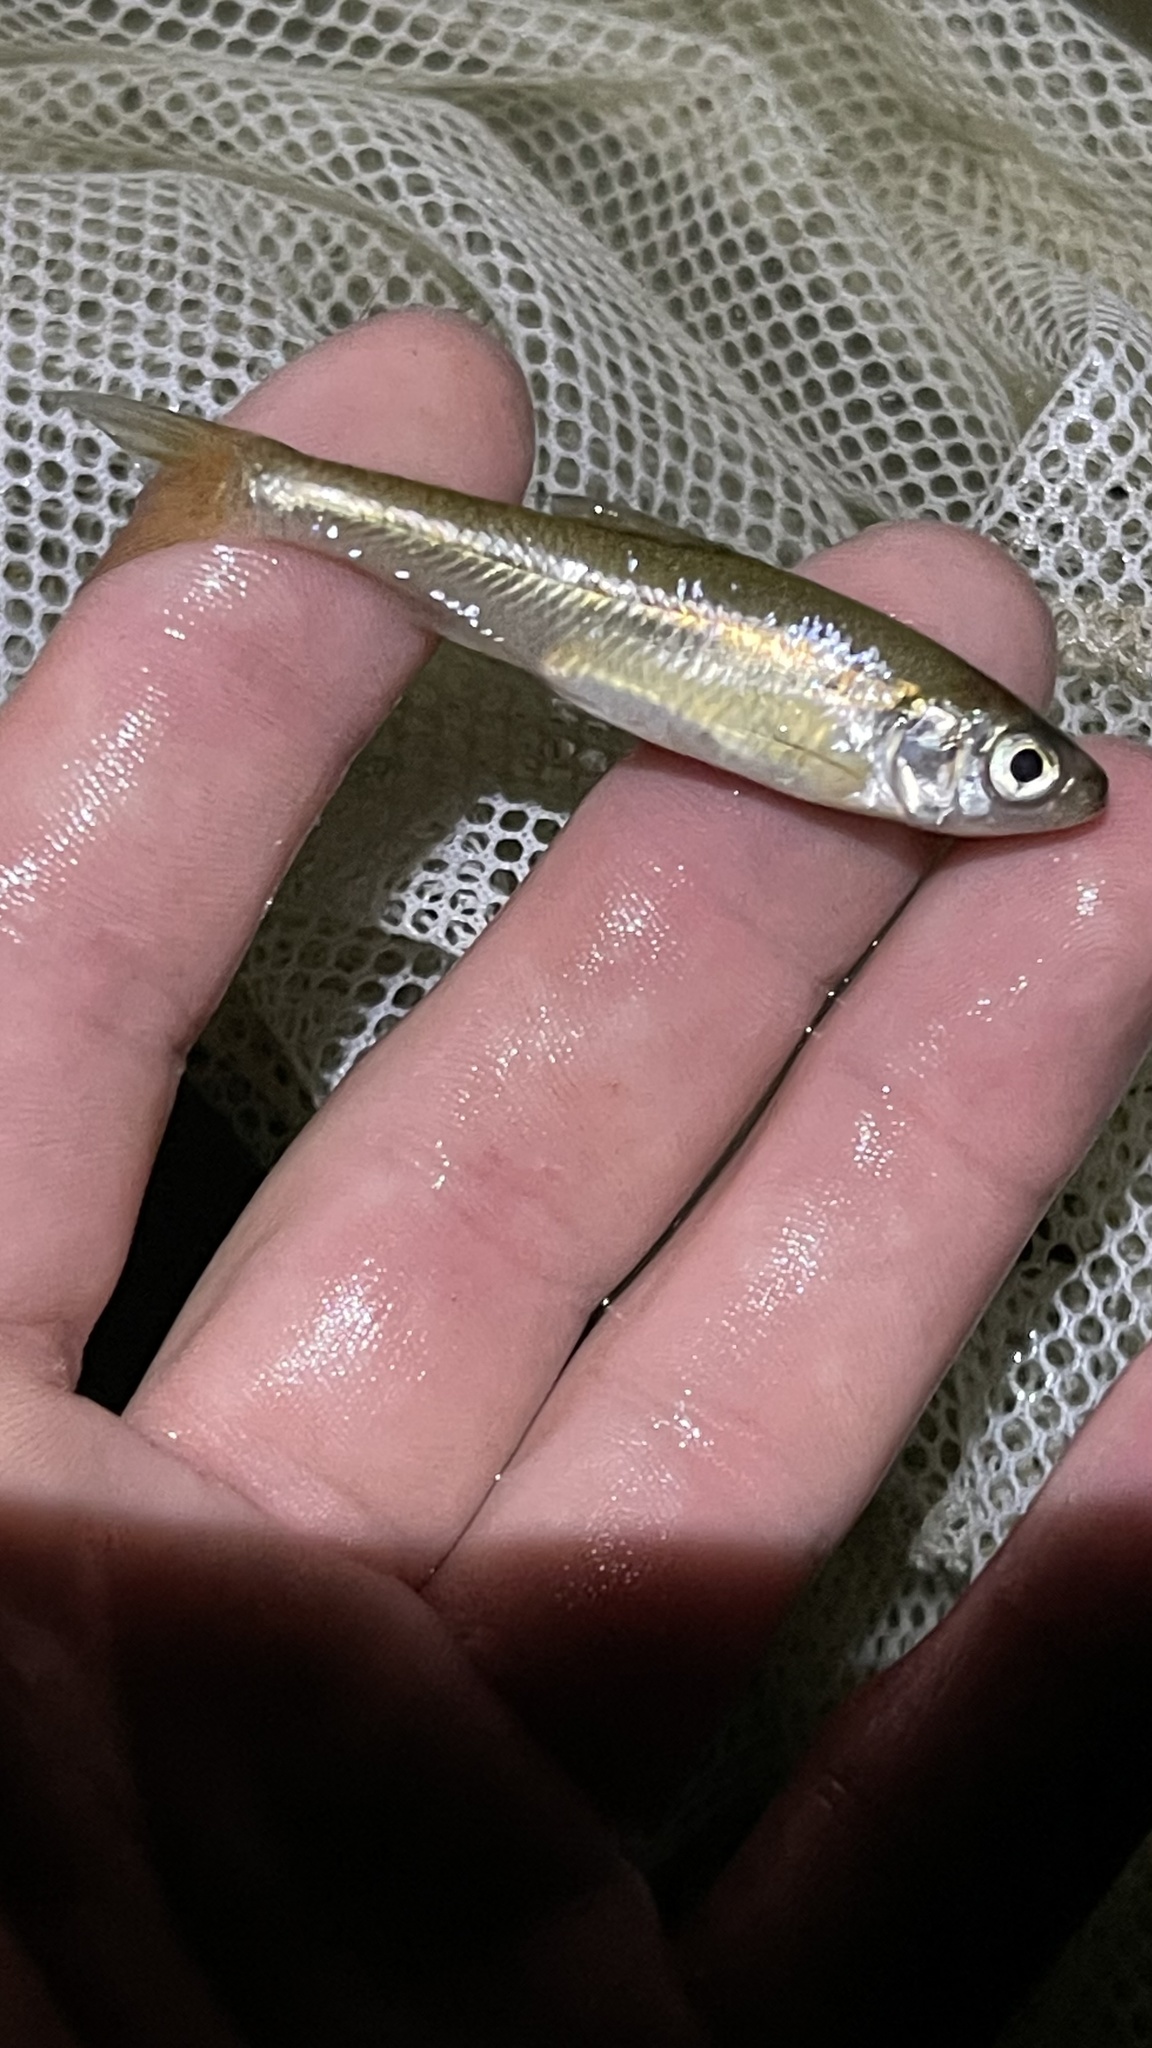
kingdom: Animalia
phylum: Chordata
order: Cypriniformes
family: Cyprinidae
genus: Luxilus
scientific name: Luxilus cornutus
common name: Common shiner
